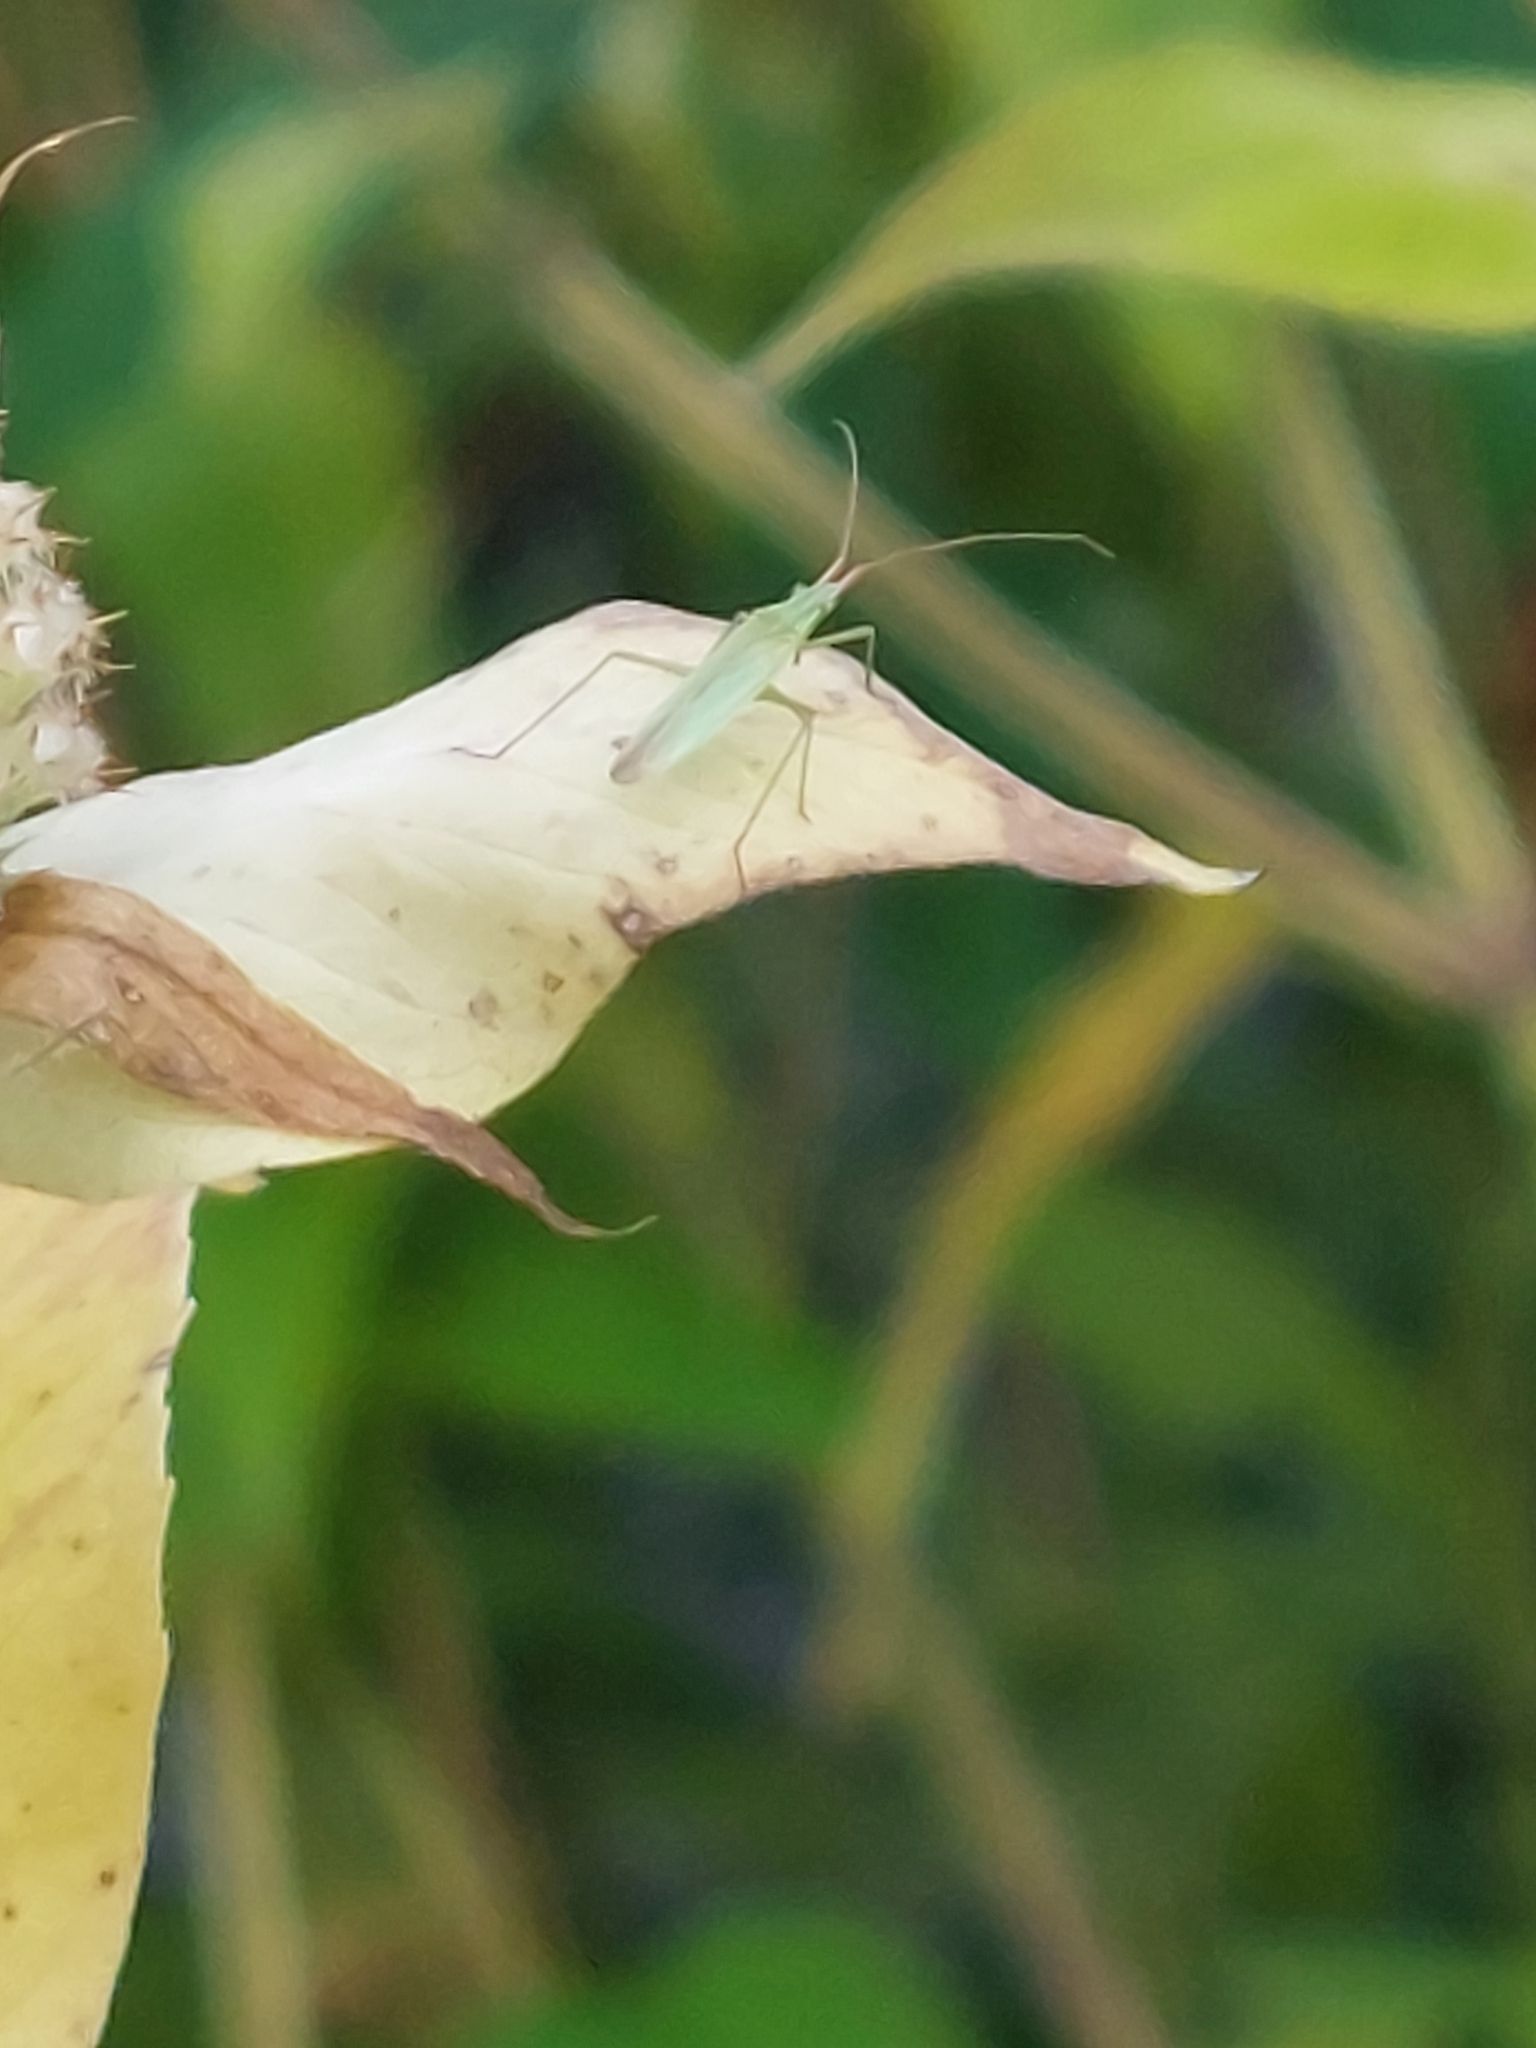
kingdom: Animalia
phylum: Arthropoda
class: Insecta
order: Hemiptera
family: Miridae
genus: Trigonotylus
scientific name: Trigonotylus caelestialium
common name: Rice leaf bug
